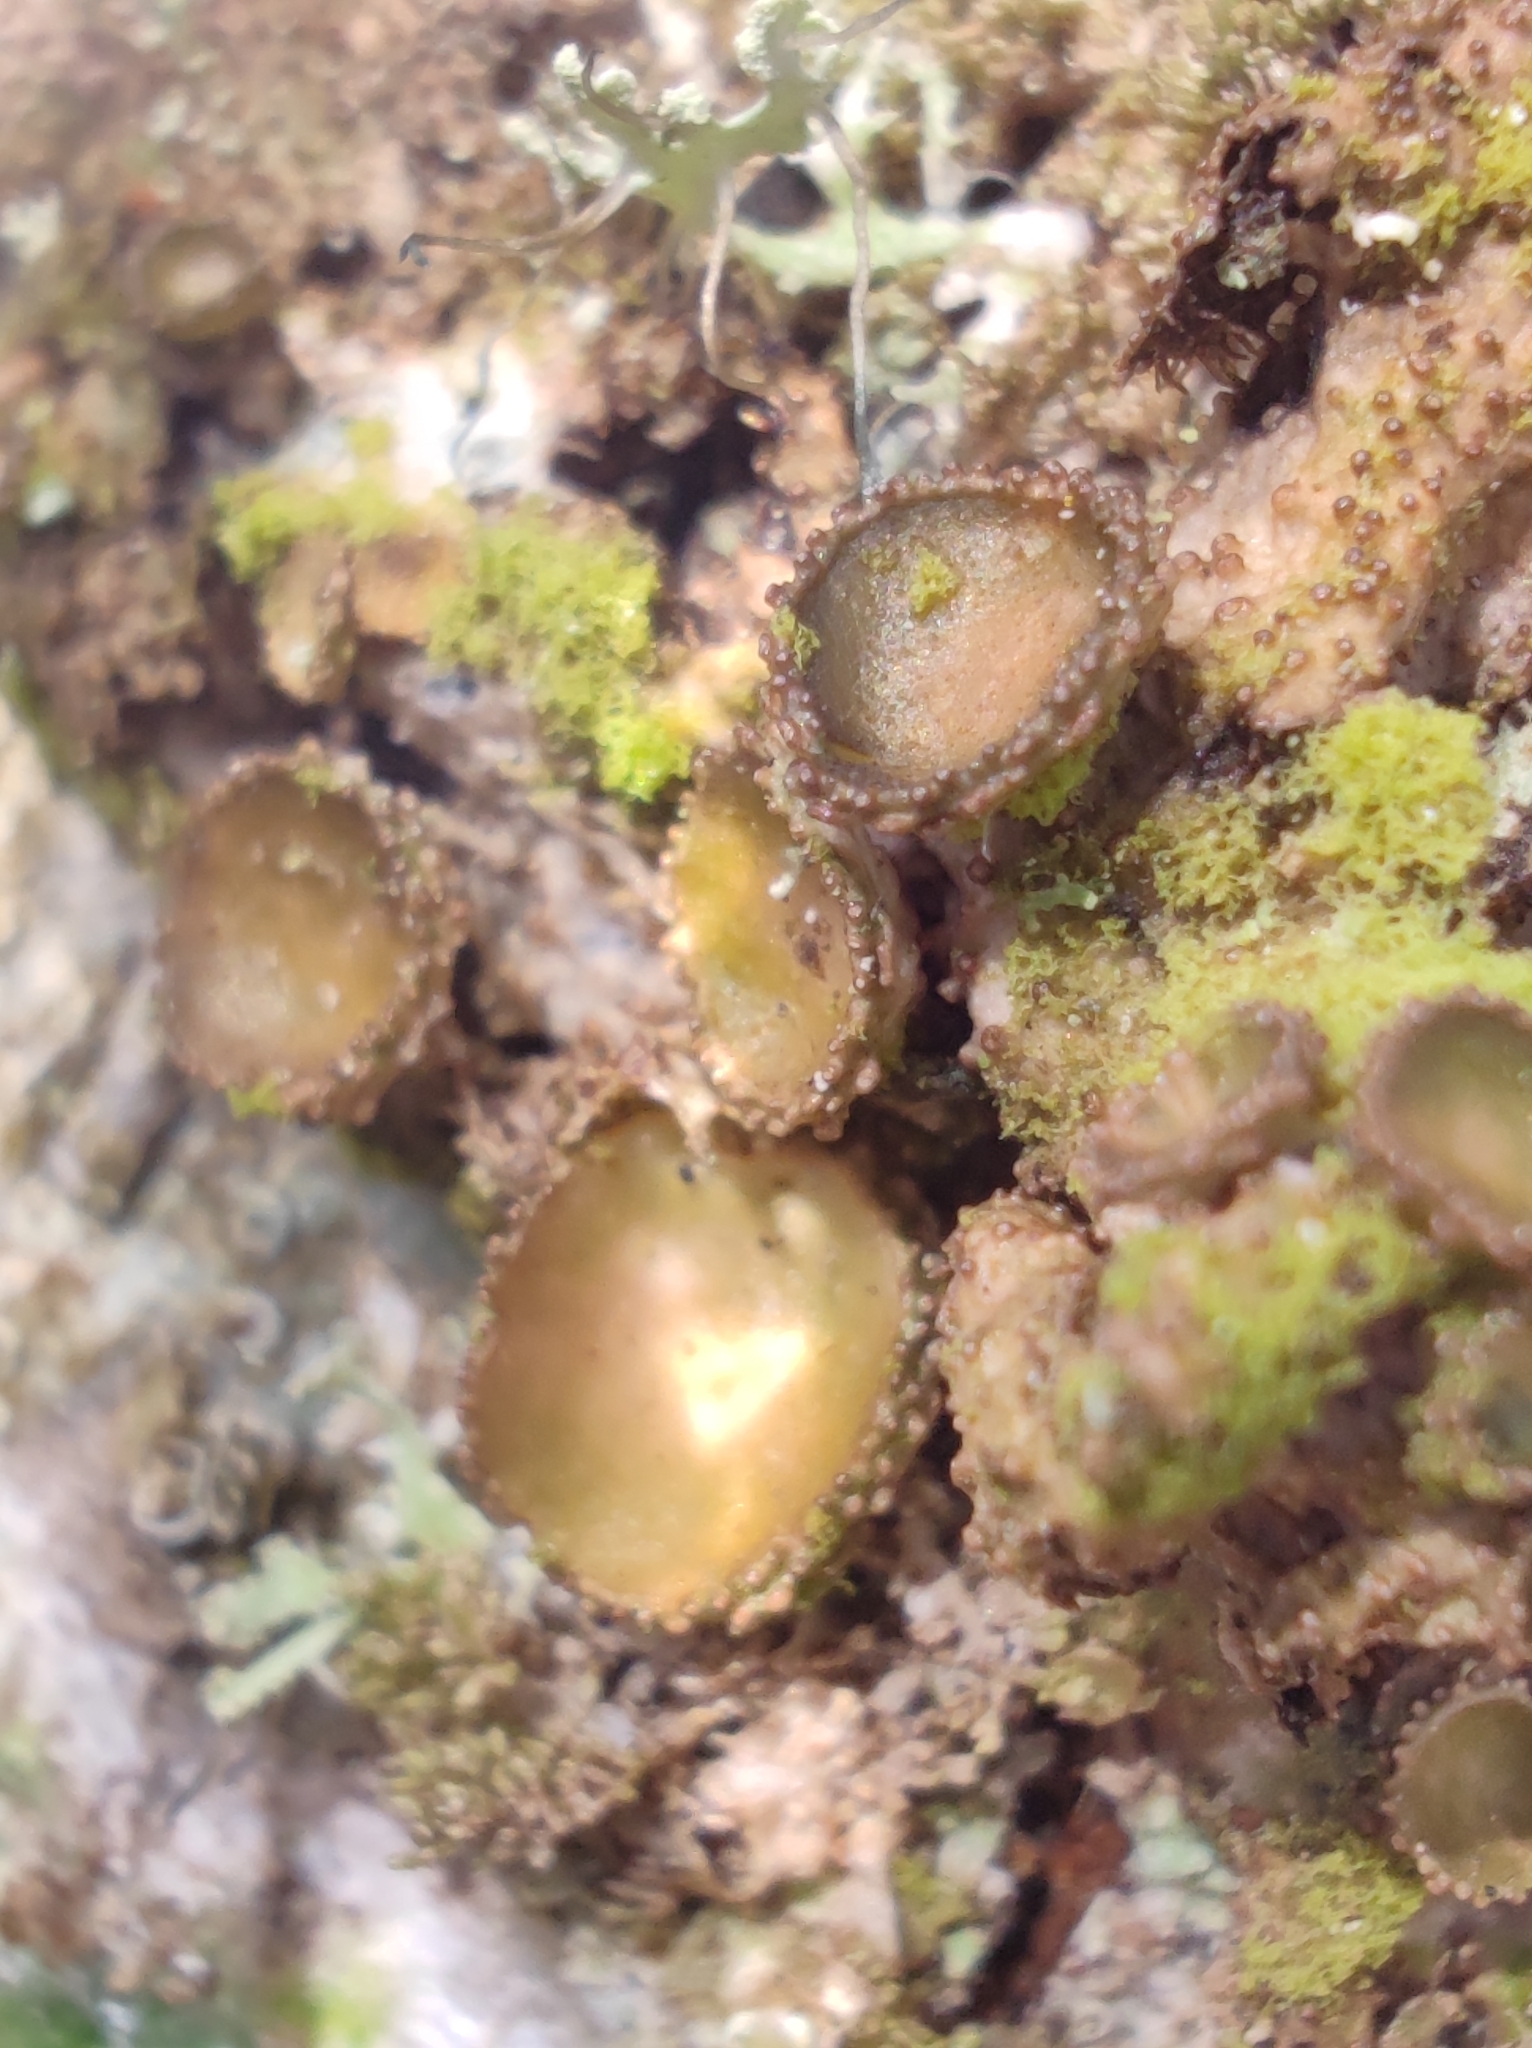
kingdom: Fungi
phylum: Ascomycota
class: Lecanoromycetes
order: Lecanorales
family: Parmeliaceae
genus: Melanohalea
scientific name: Melanohalea exasperata
